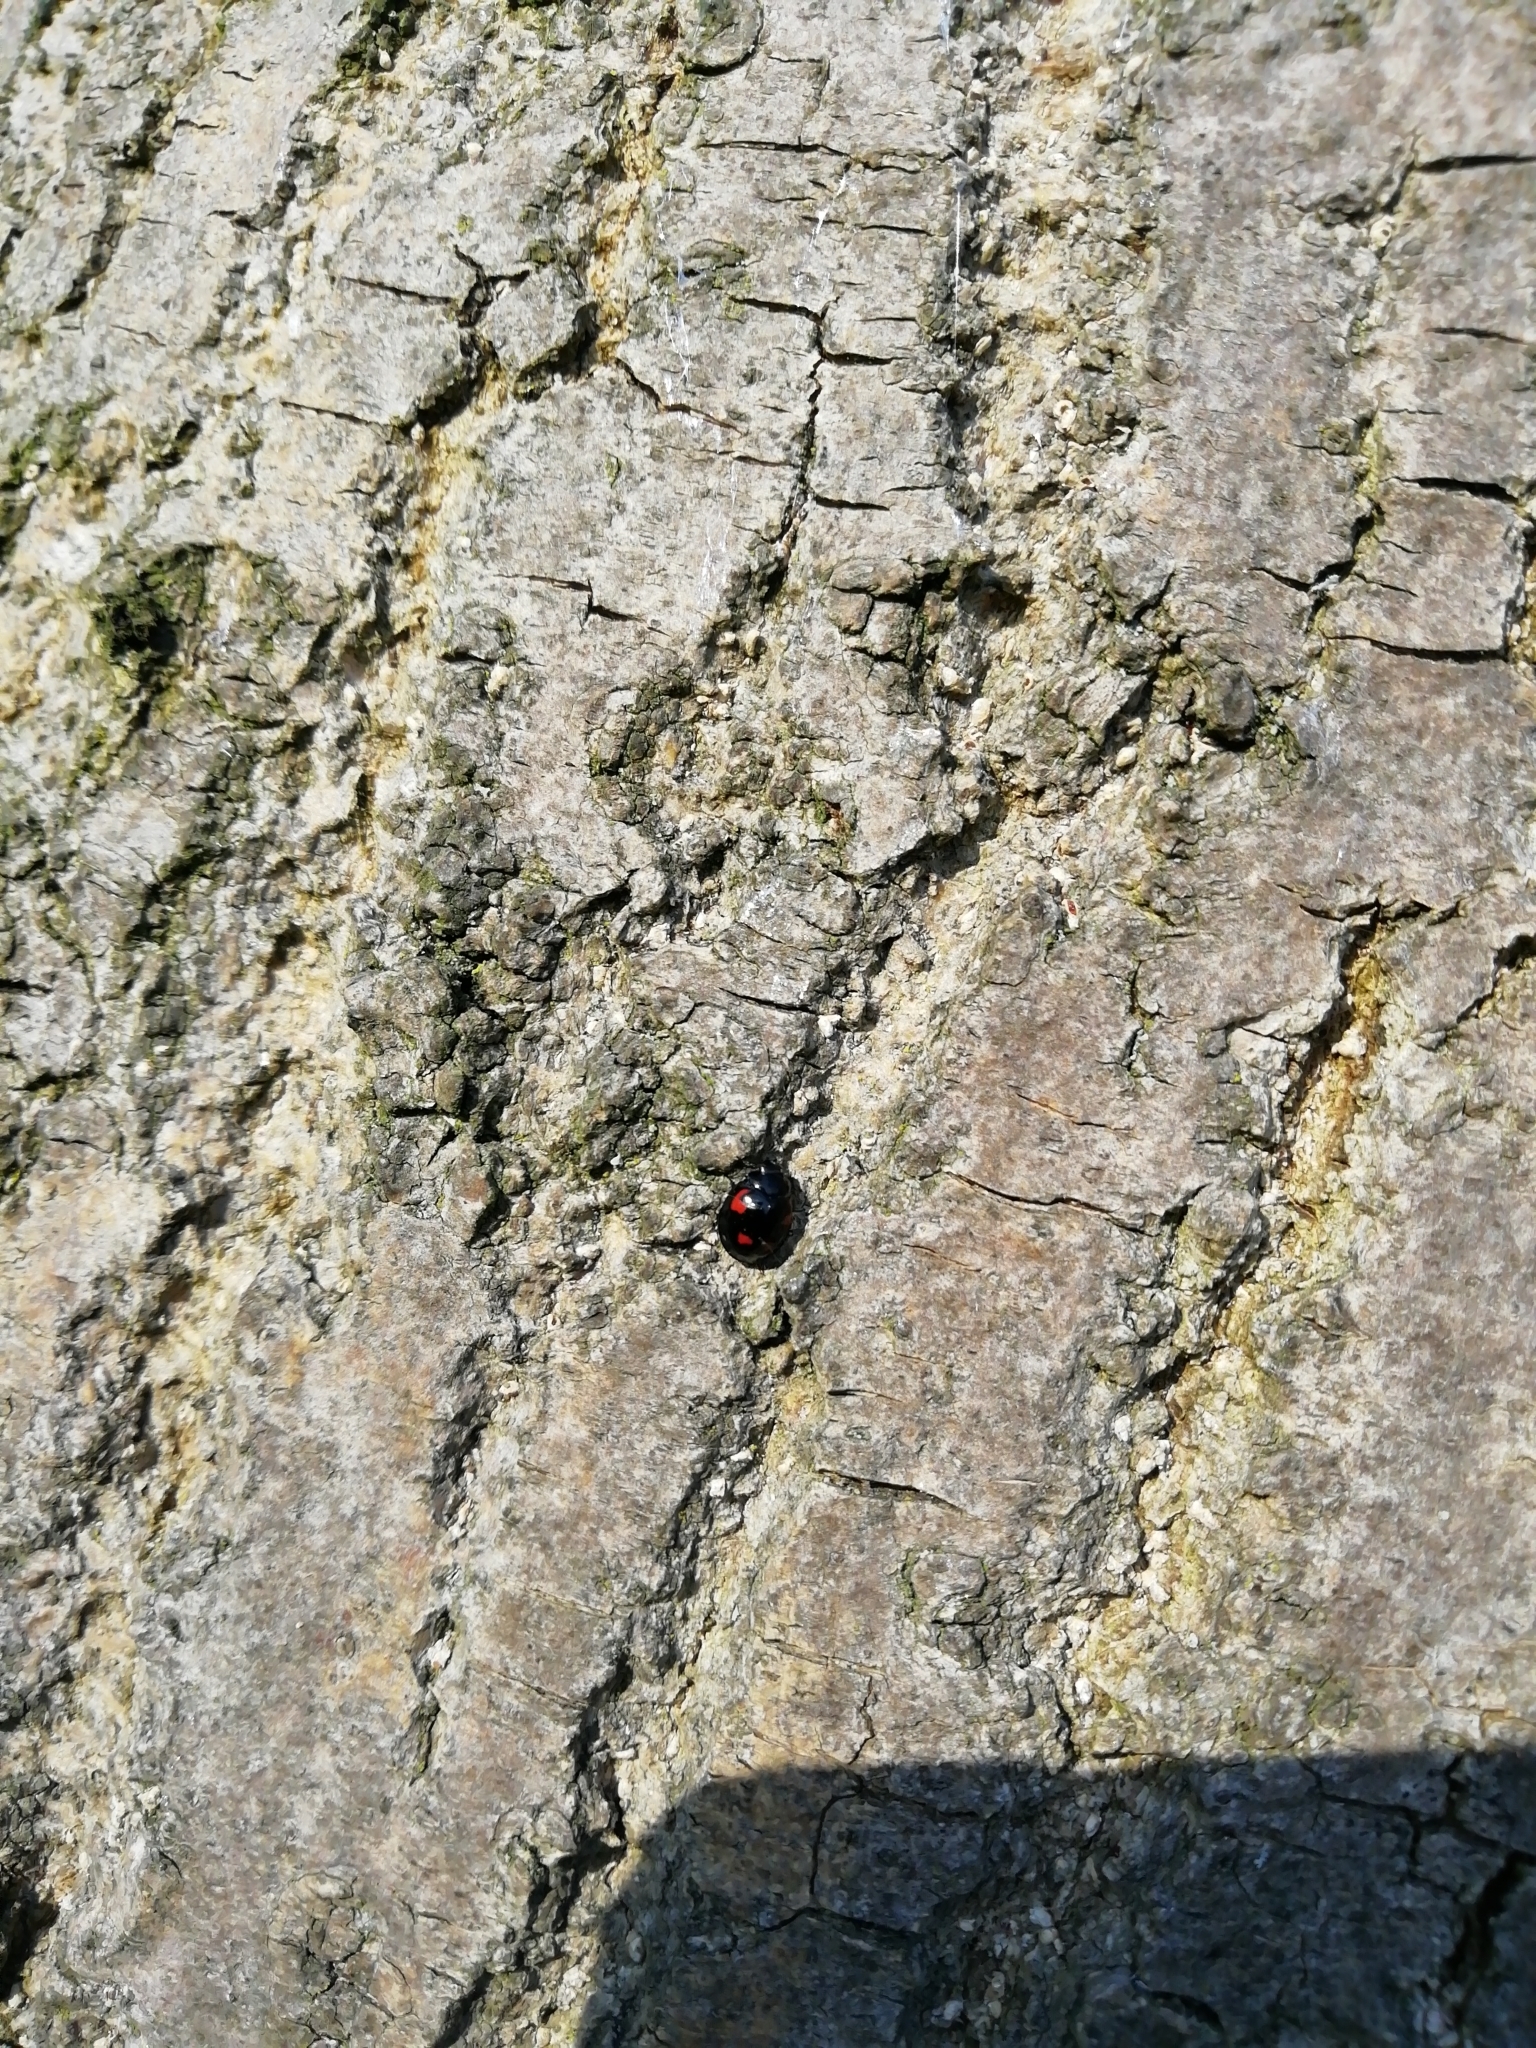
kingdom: Animalia
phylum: Arthropoda
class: Insecta
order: Coleoptera
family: Coccinellidae
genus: Brumus
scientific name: Brumus quadripustulatus
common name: Ladybird beetle
